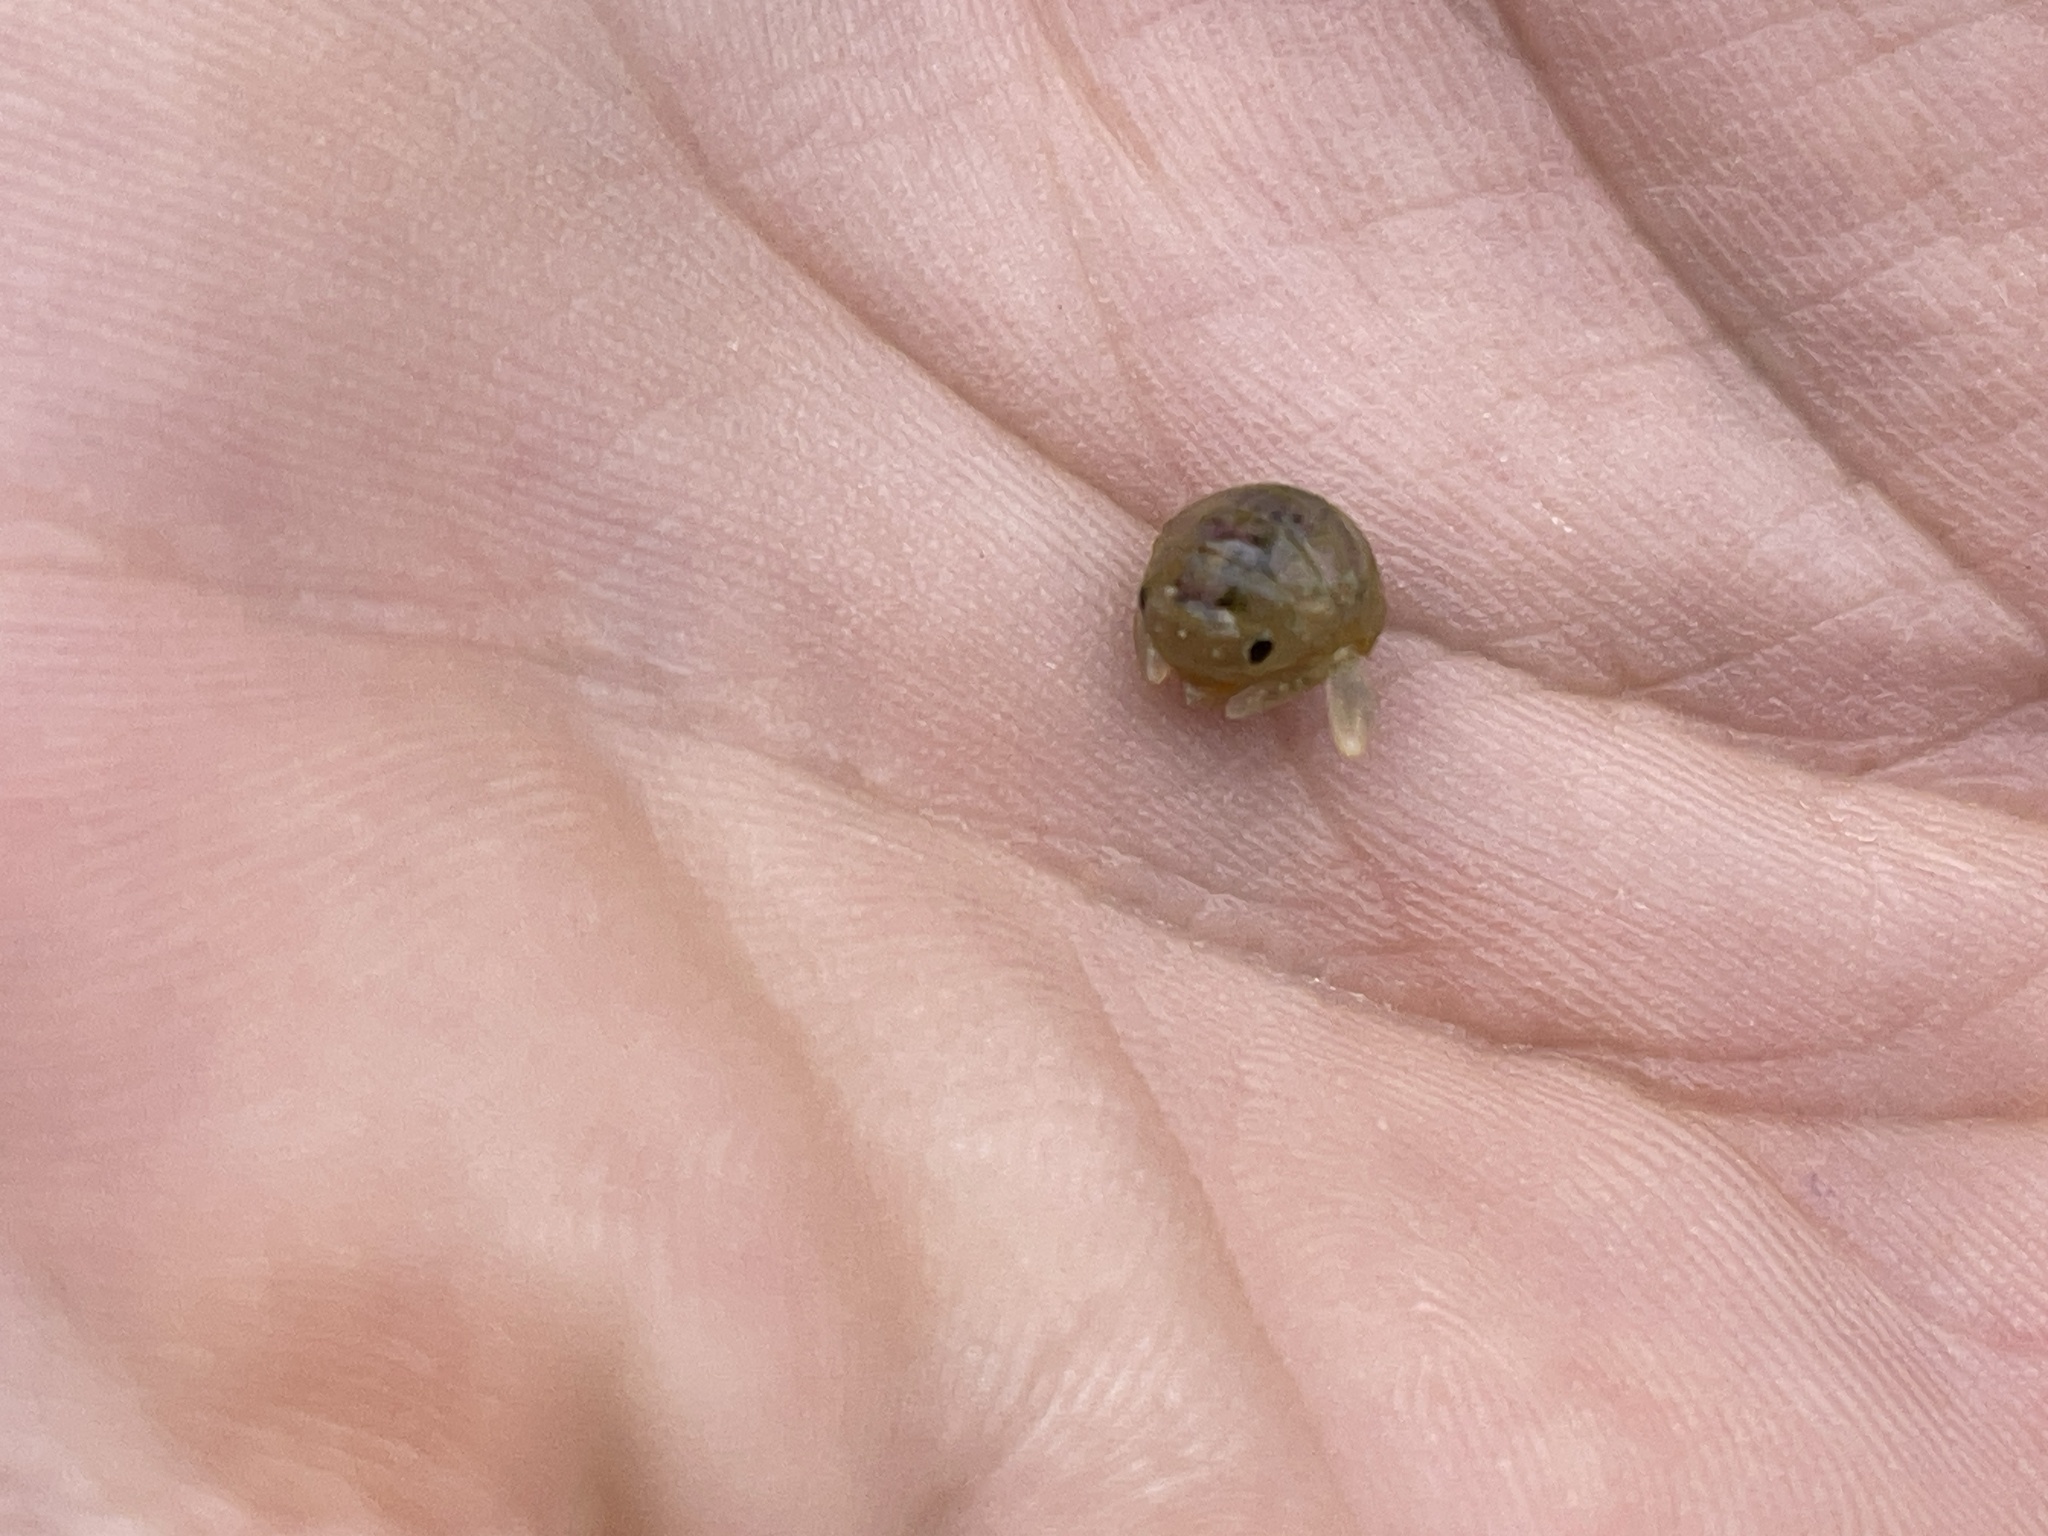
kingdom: Animalia
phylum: Arthropoda
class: Malacostraca
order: Isopoda
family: Sphaeromatidae
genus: Zuzara
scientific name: Zuzara venosa
